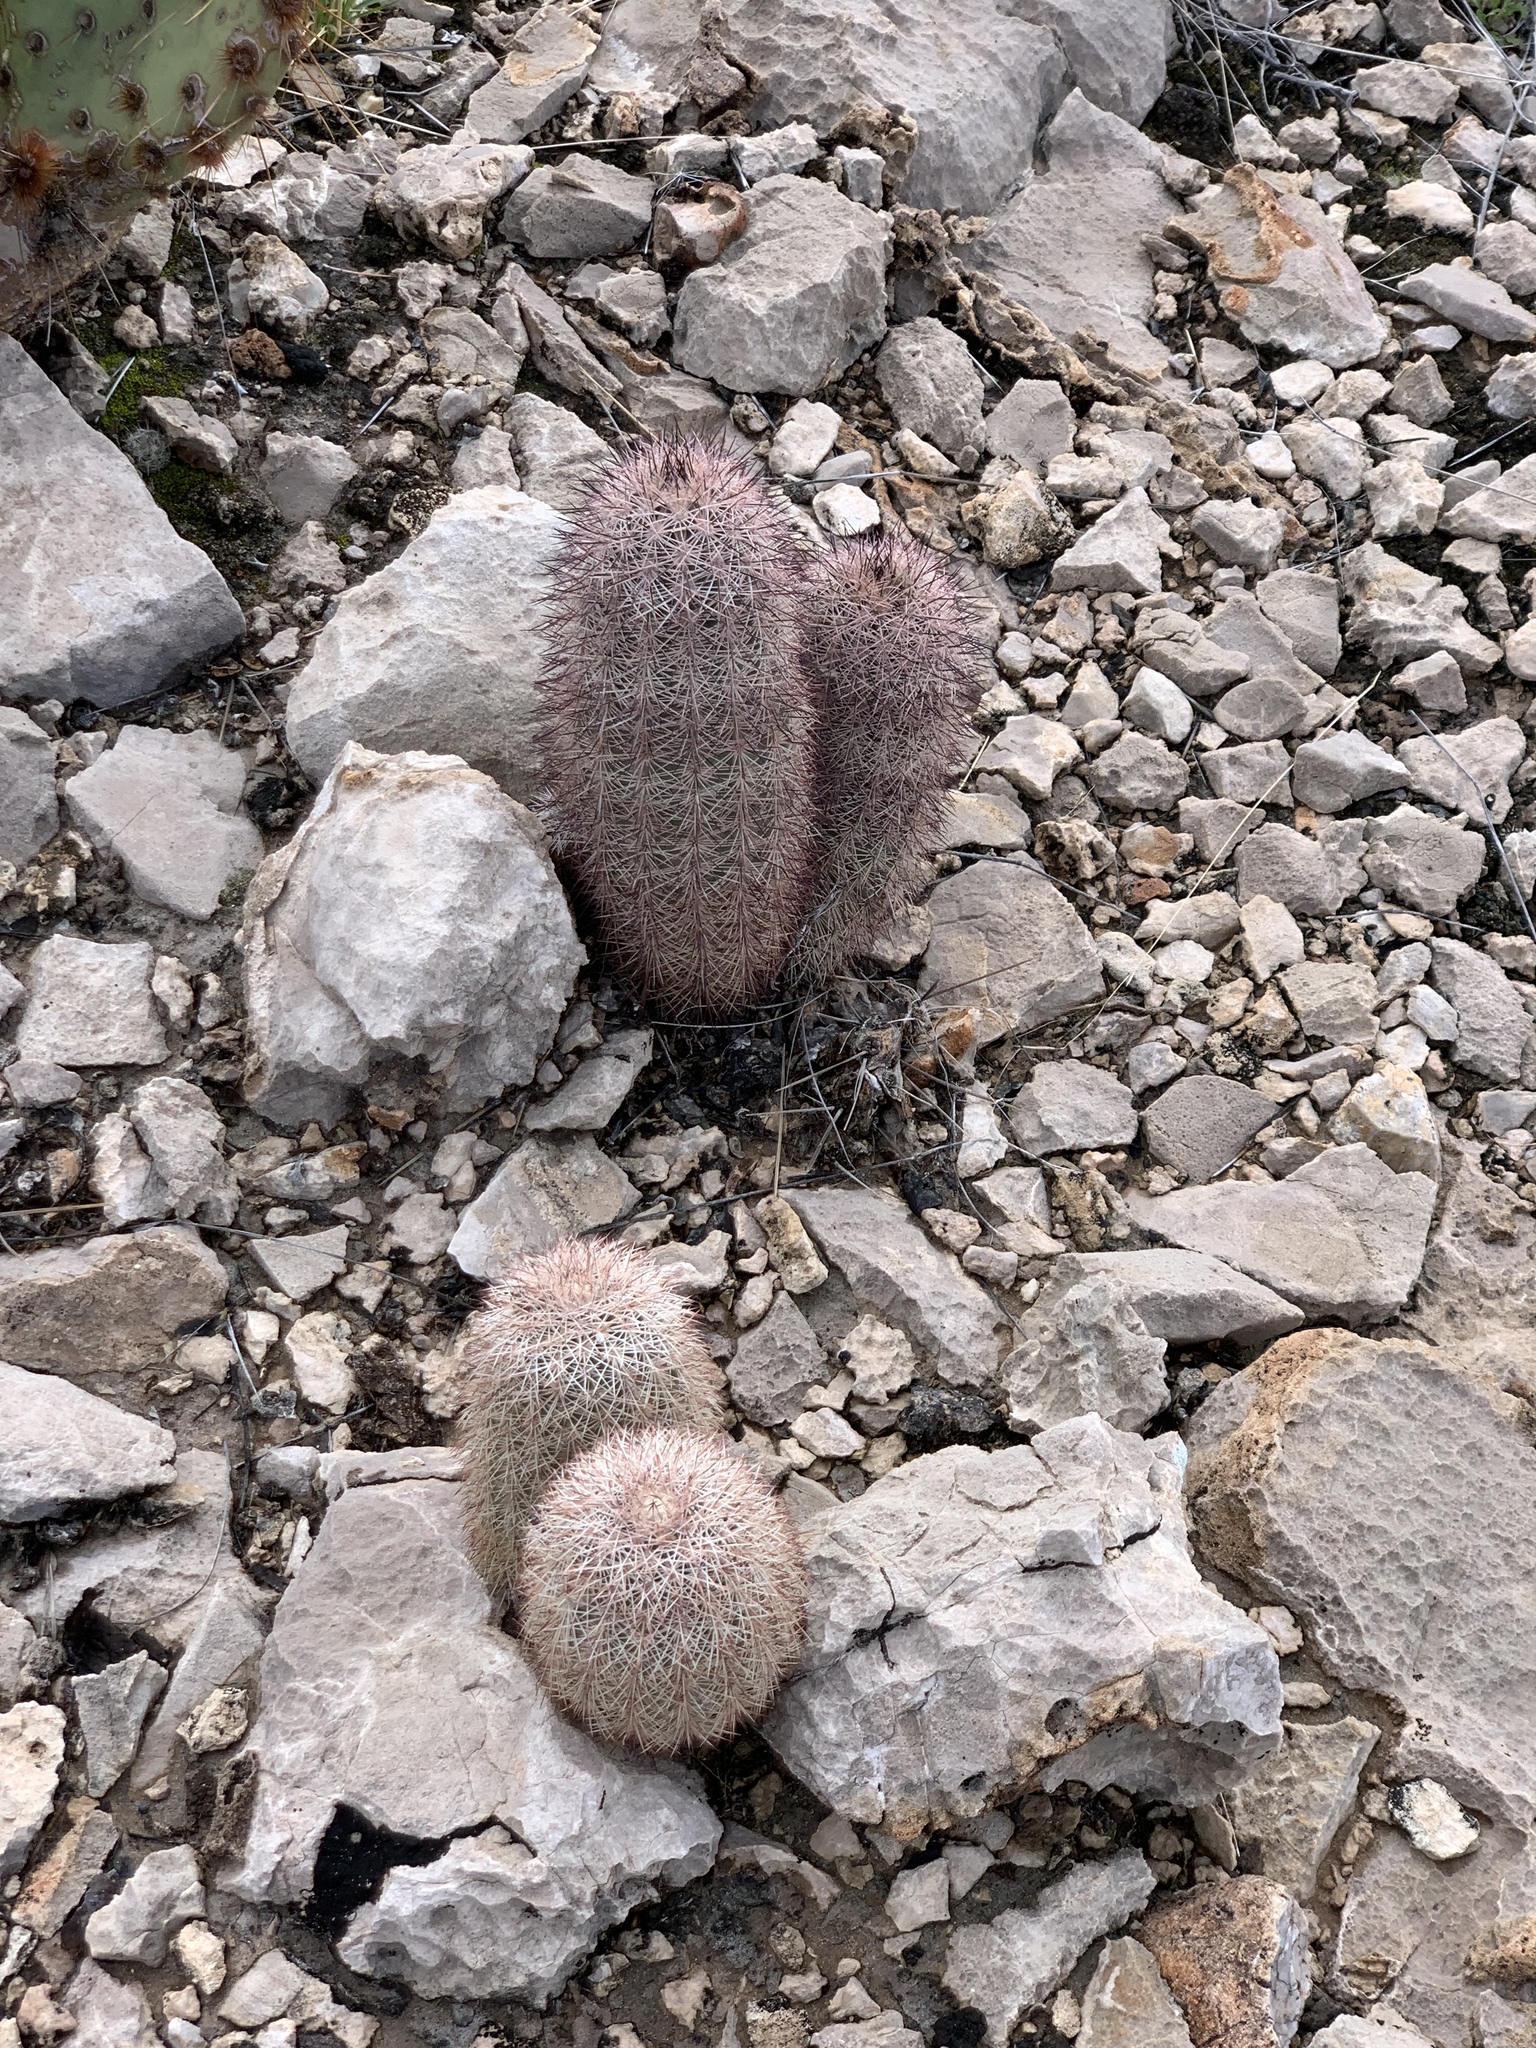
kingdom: Plantae
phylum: Tracheophyta
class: Magnoliopsida
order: Caryophyllales
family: Cactaceae
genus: Echinocereus
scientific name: Echinocereus dasyacanthus
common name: Spiny hedgehog cactus
